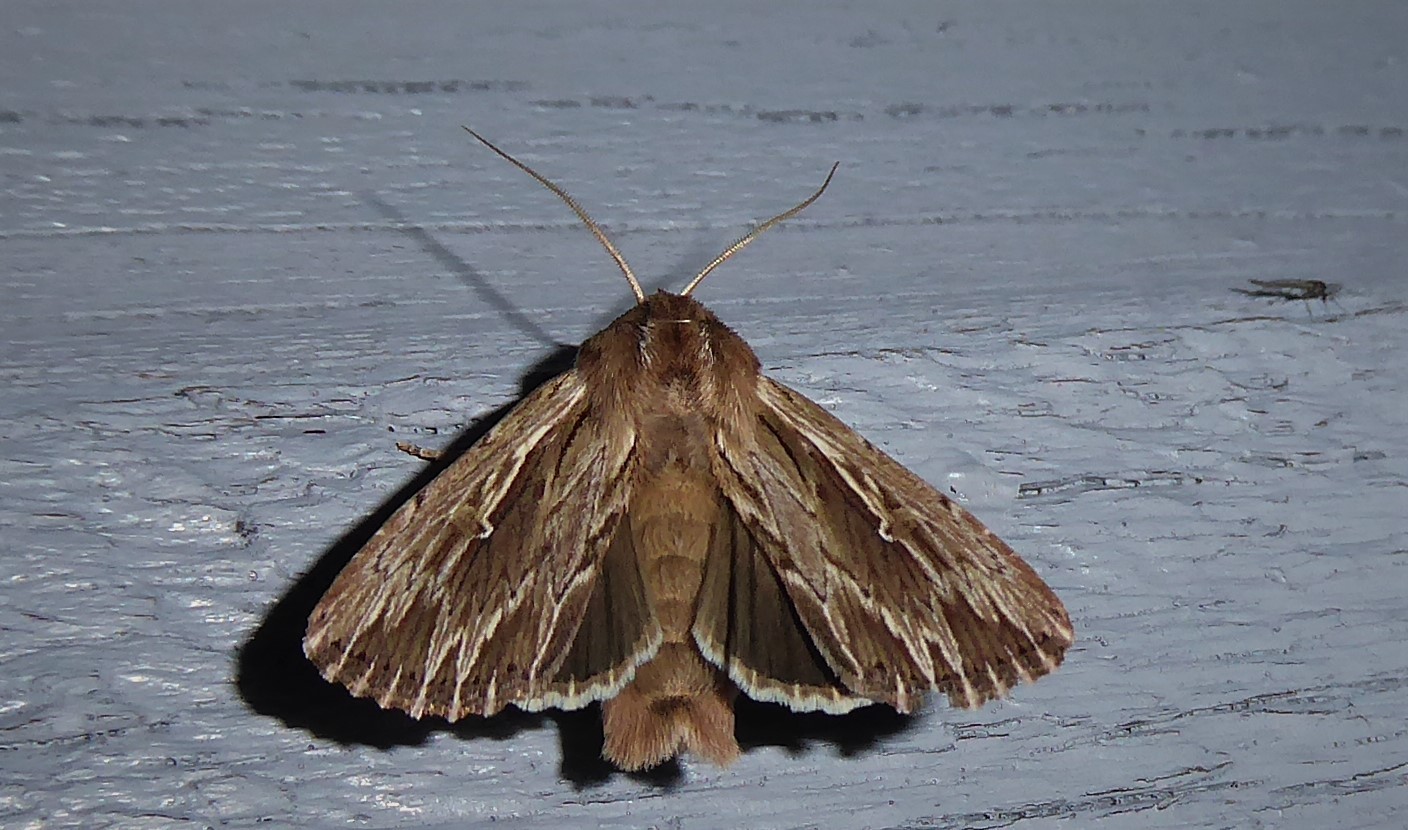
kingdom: Animalia
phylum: Arthropoda
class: Insecta
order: Lepidoptera
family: Noctuidae
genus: Persectania
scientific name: Persectania aversa
